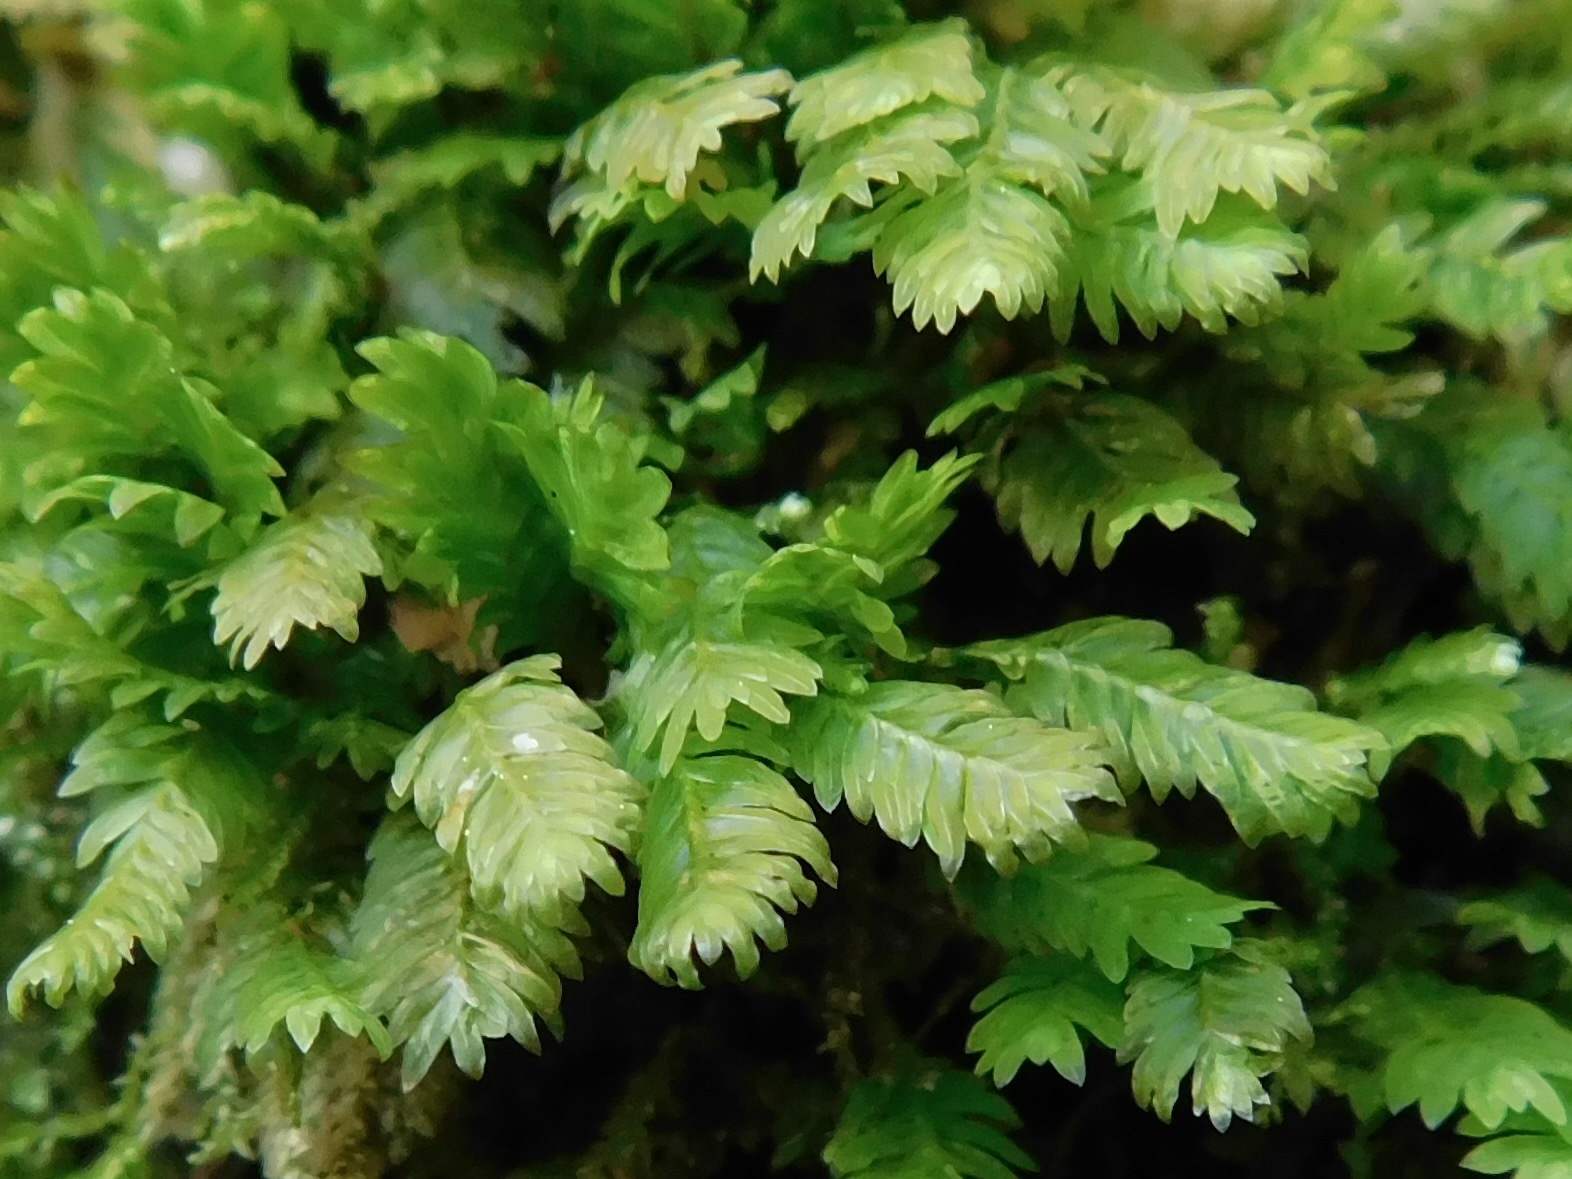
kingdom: Plantae
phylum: Bryophyta
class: Bryopsida
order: Dicranales
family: Fissidentaceae
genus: Fissidens
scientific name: Fissidens osmundioides
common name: Osmund fissidens moss
